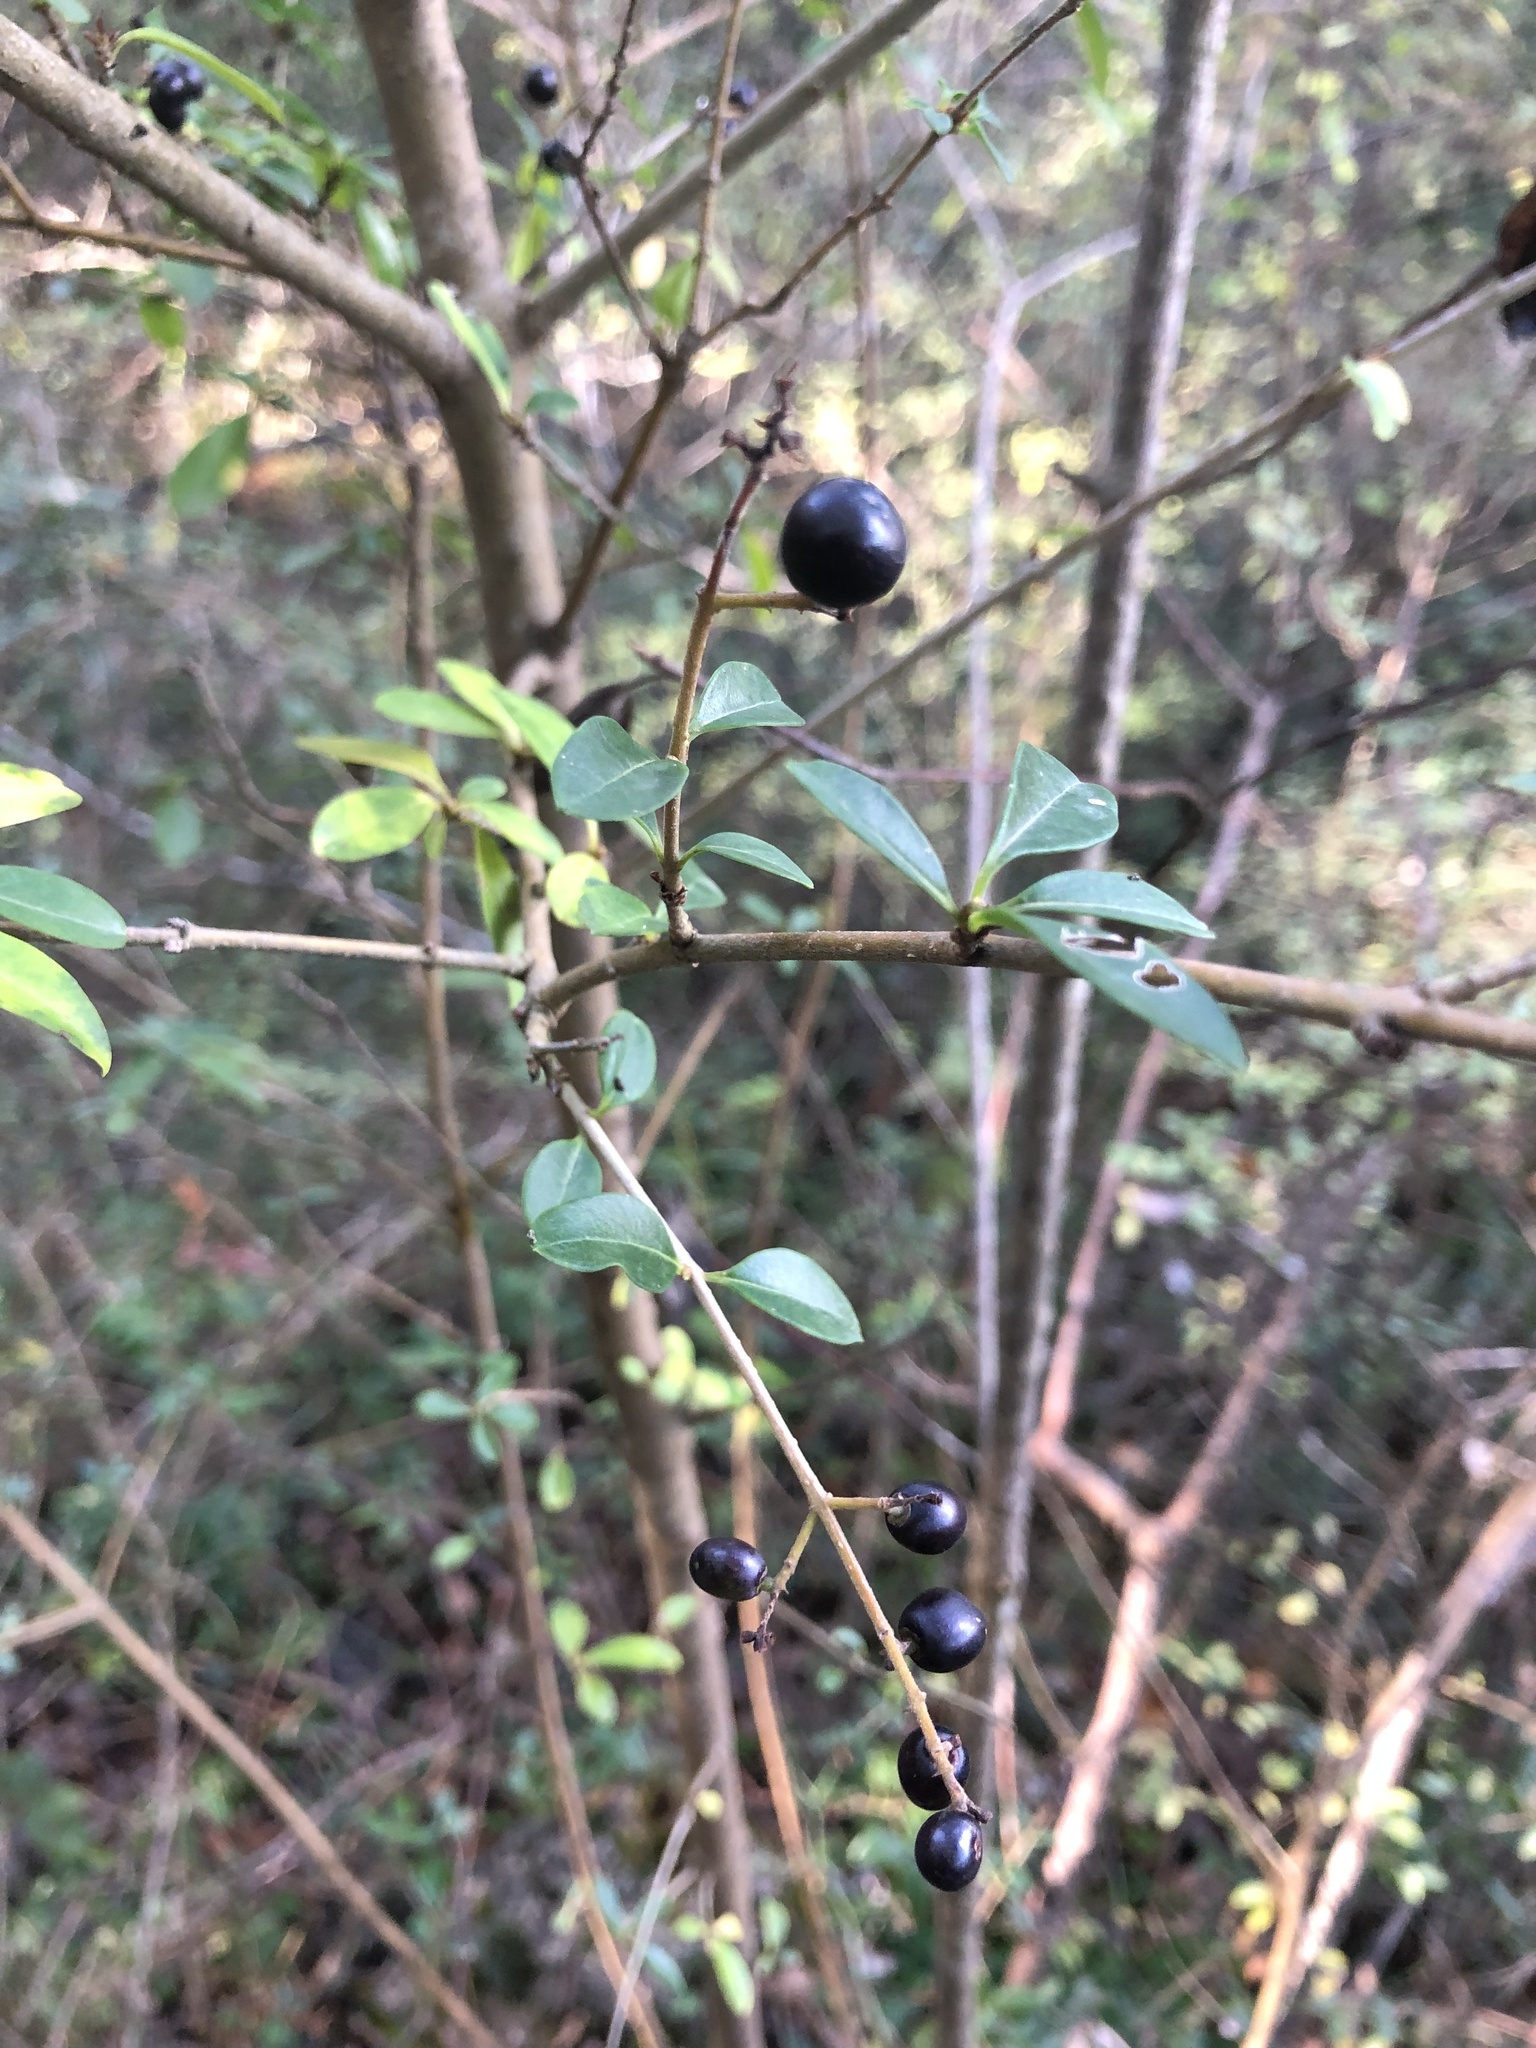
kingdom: Plantae
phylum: Tracheophyta
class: Magnoliopsida
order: Lamiales
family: Oleaceae
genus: Ligustrum
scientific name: Ligustrum vulgare
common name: Wild privet
